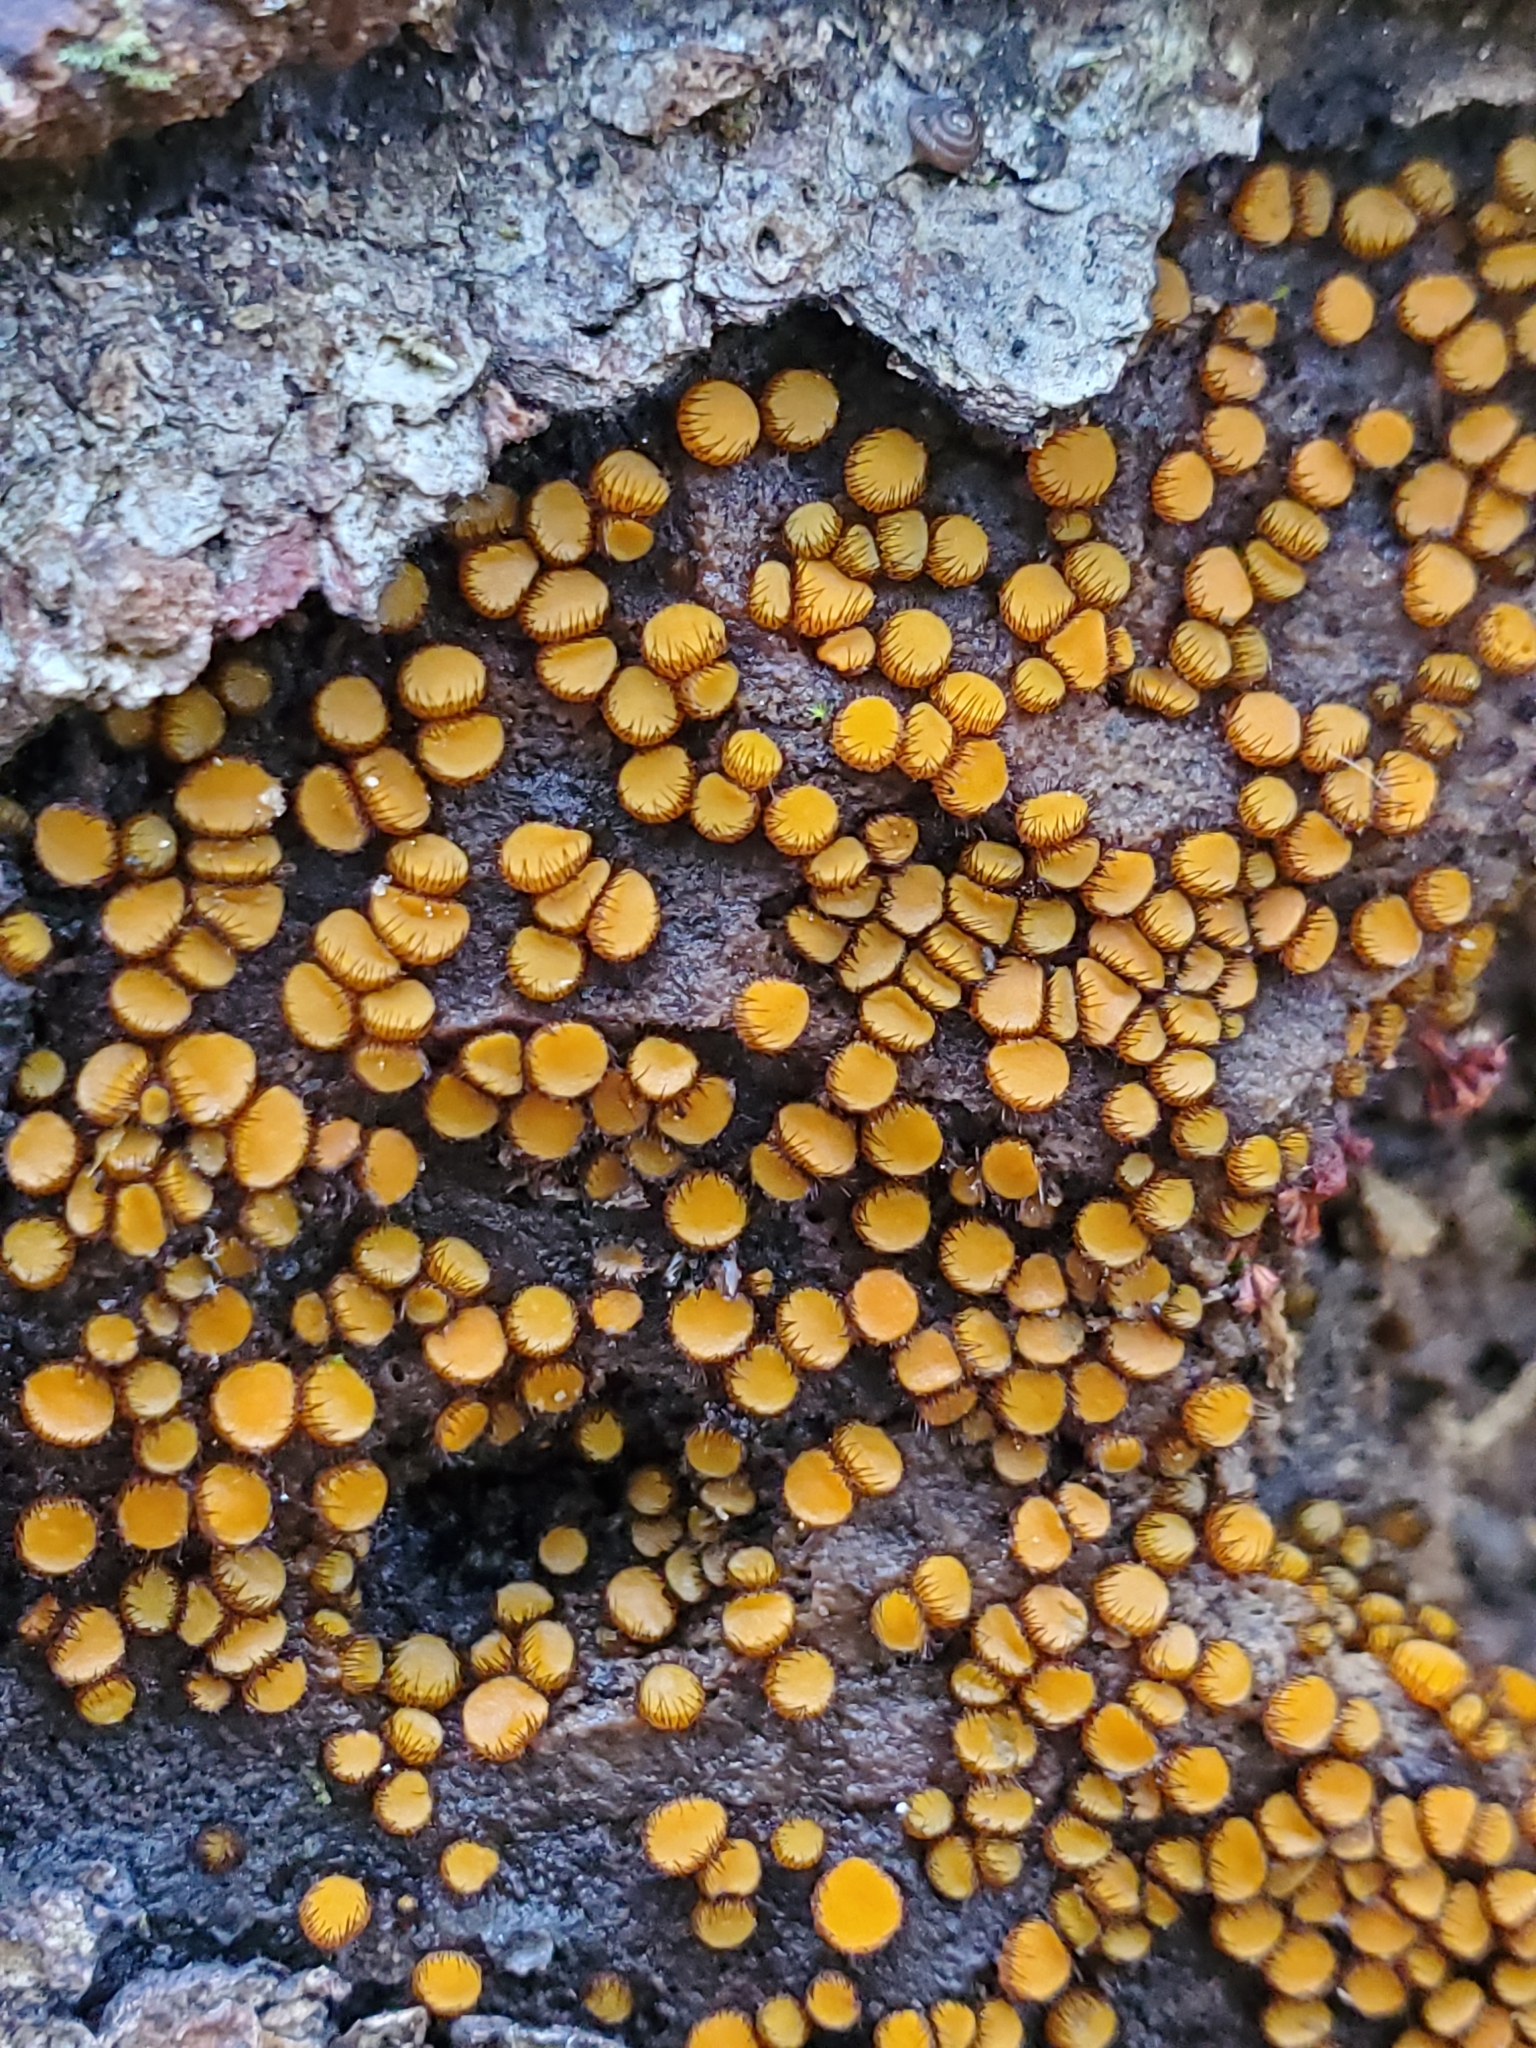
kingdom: Fungi
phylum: Ascomycota
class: Pezizomycetes
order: Pezizales
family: Pyronemataceae
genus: Scutellinia
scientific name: Scutellinia setosa
